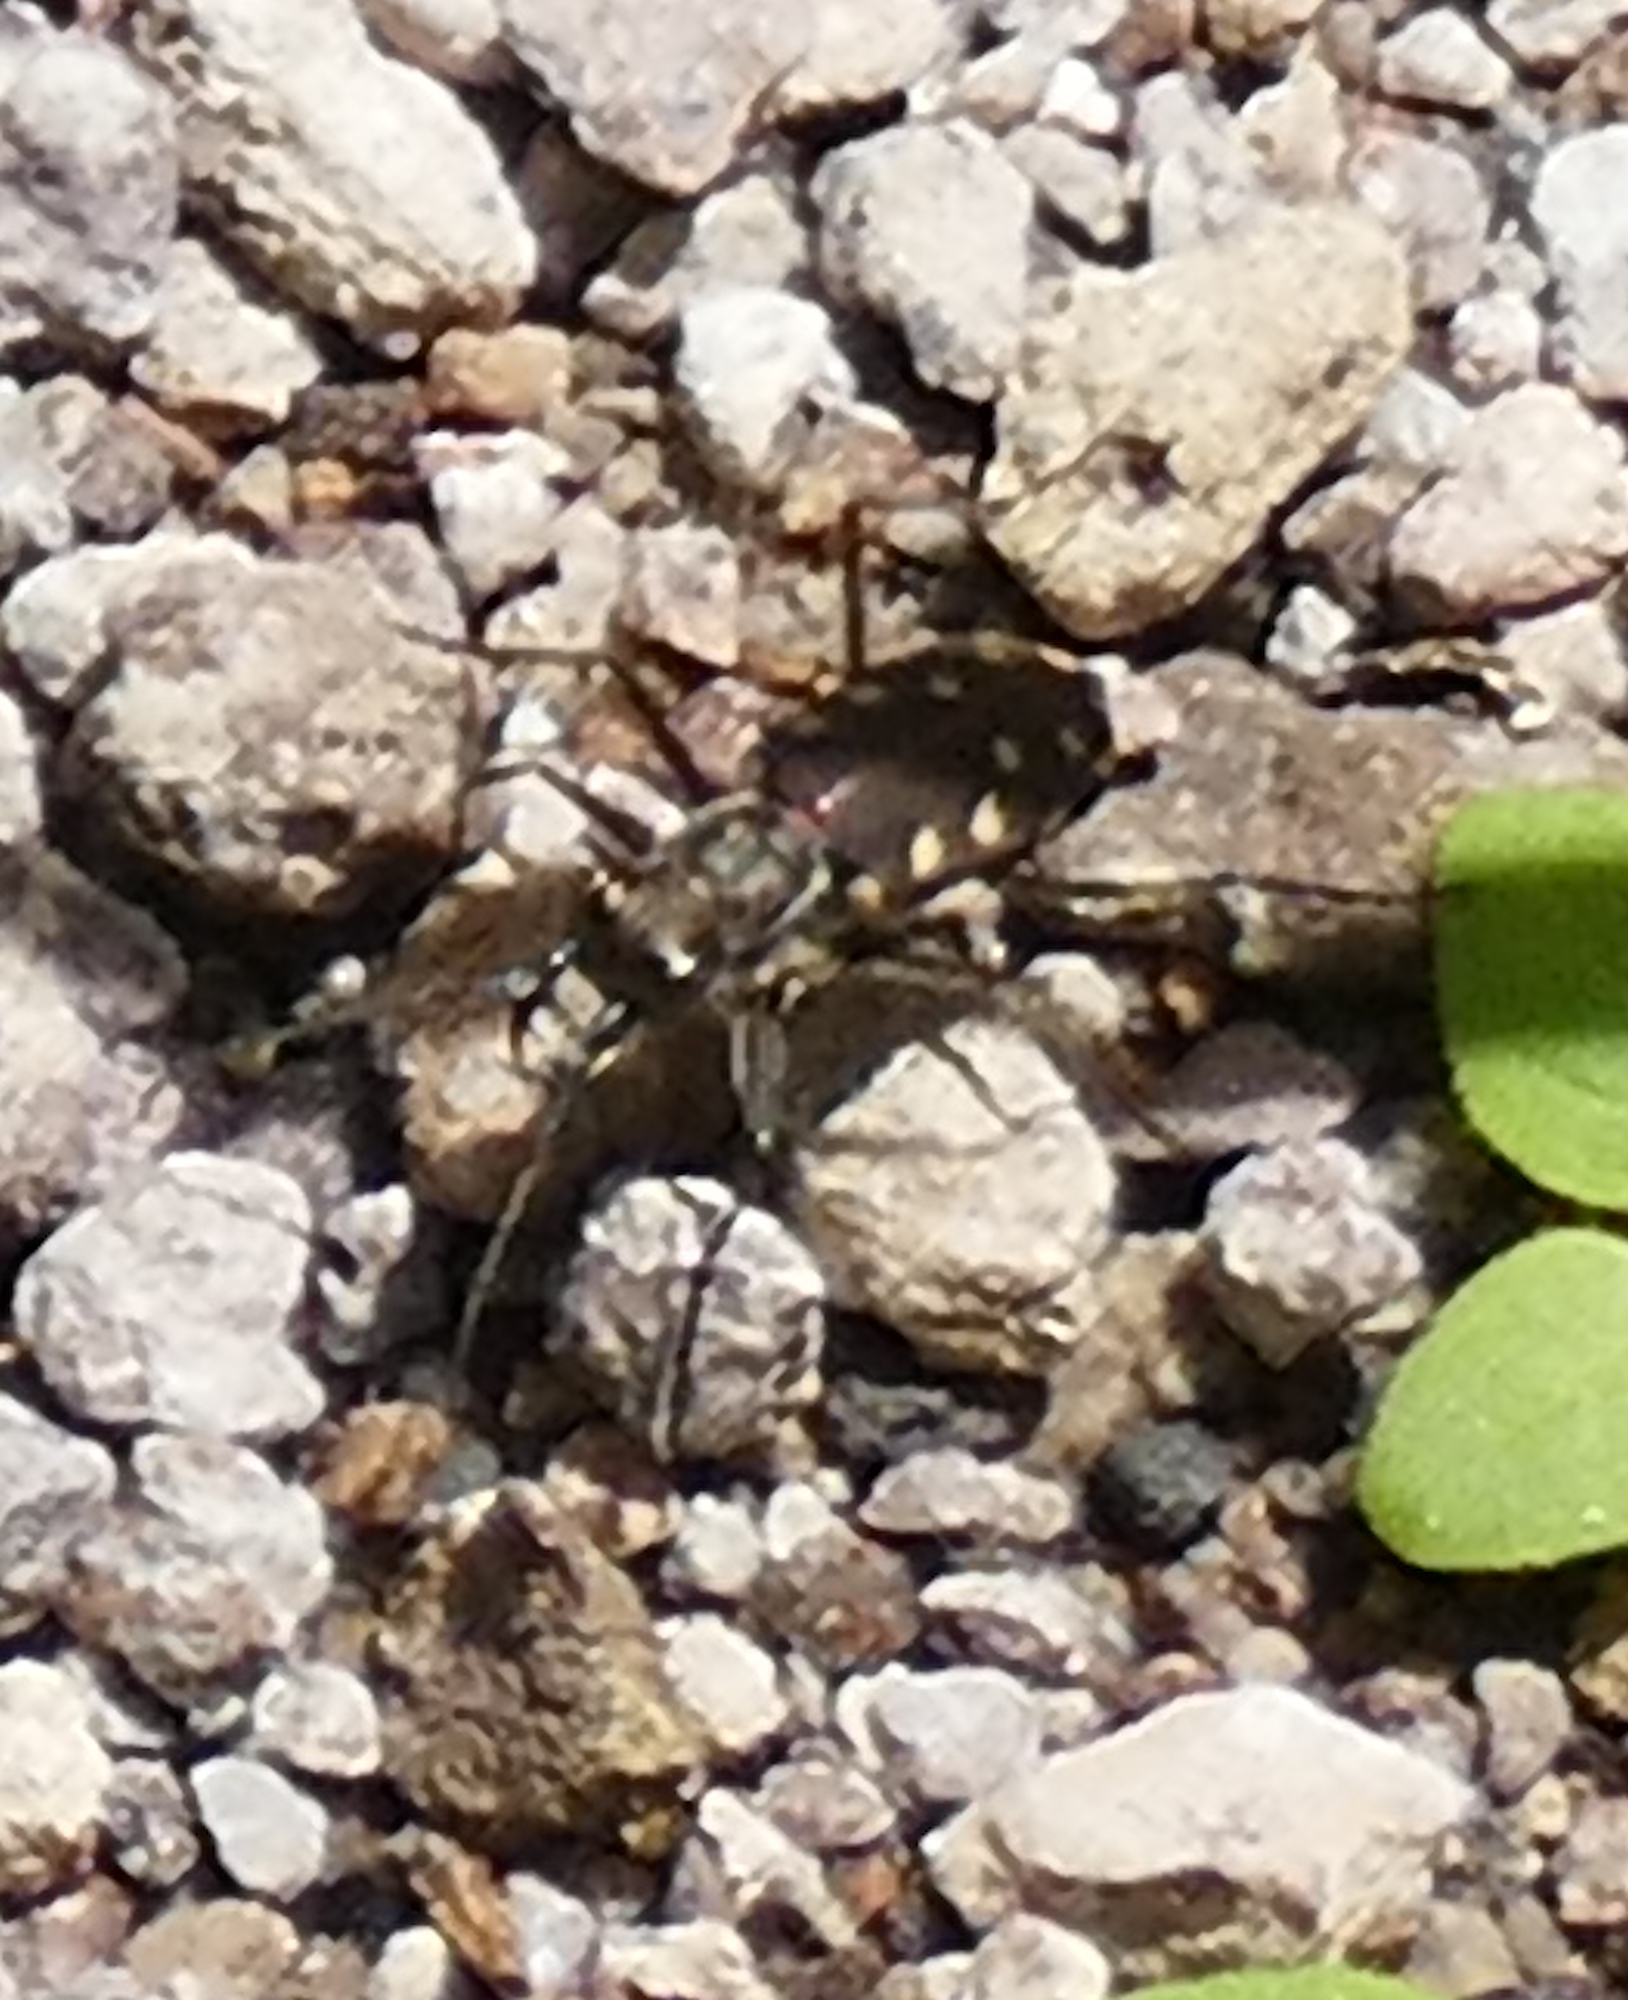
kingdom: Animalia
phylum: Arthropoda
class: Insecta
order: Coleoptera
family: Carabidae
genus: Cicindela
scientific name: Cicindela sedecimpunctata
